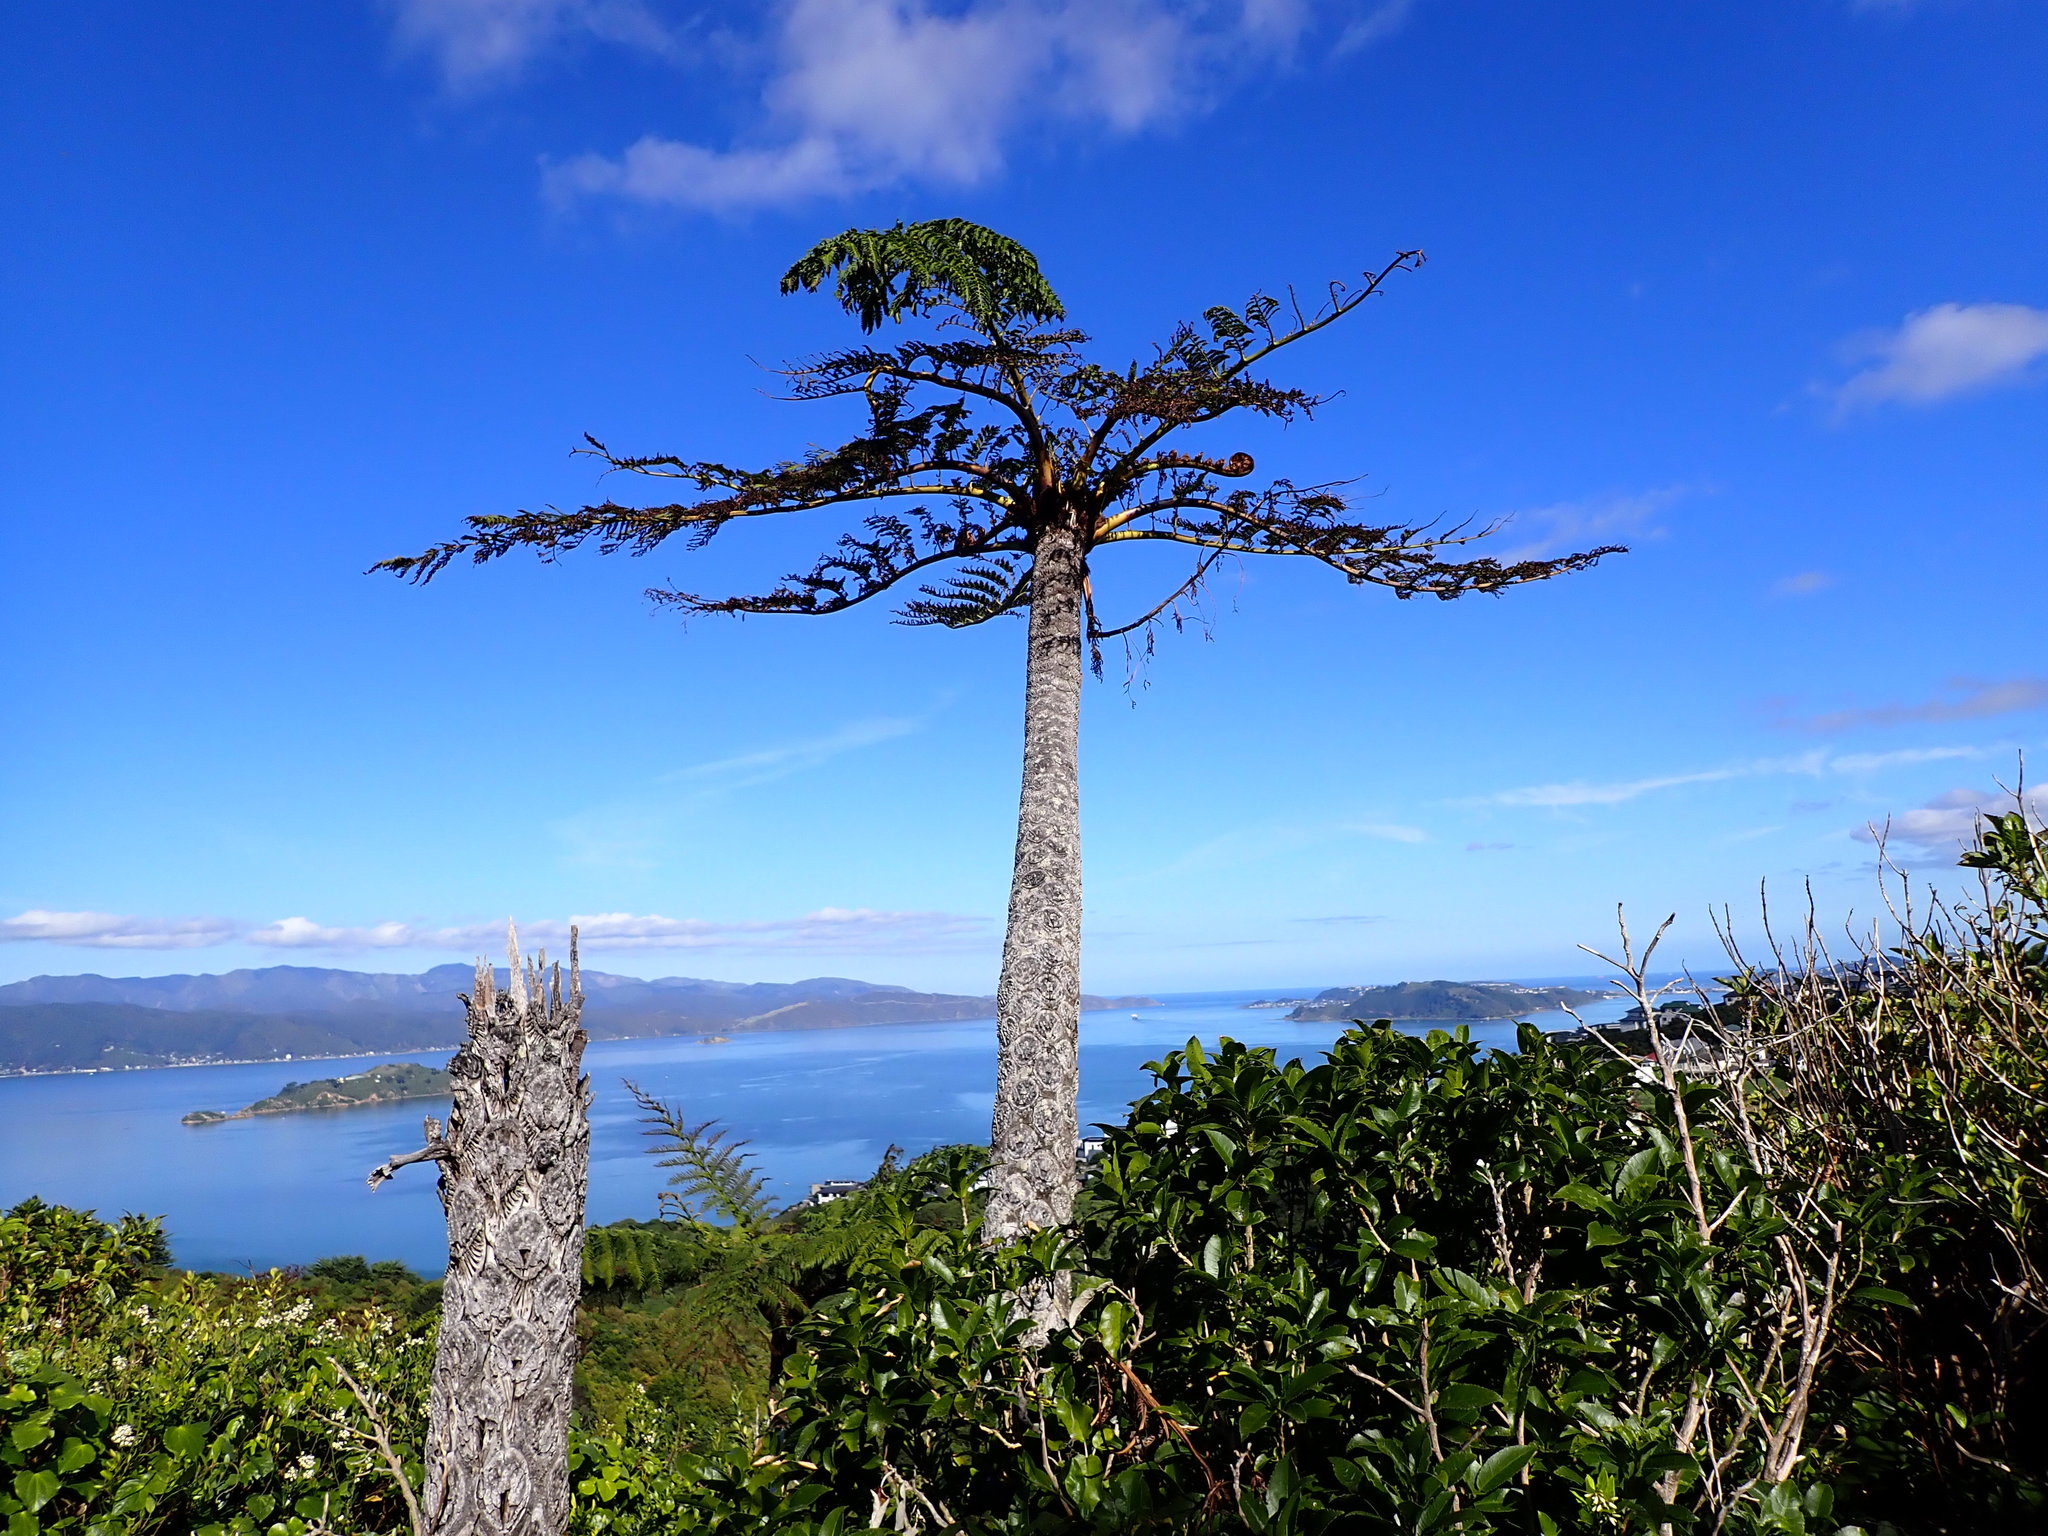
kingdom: Plantae
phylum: Tracheophyta
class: Polypodiopsida
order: Cyatheales
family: Cyatheaceae
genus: Sphaeropteris
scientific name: Sphaeropteris medullaris
